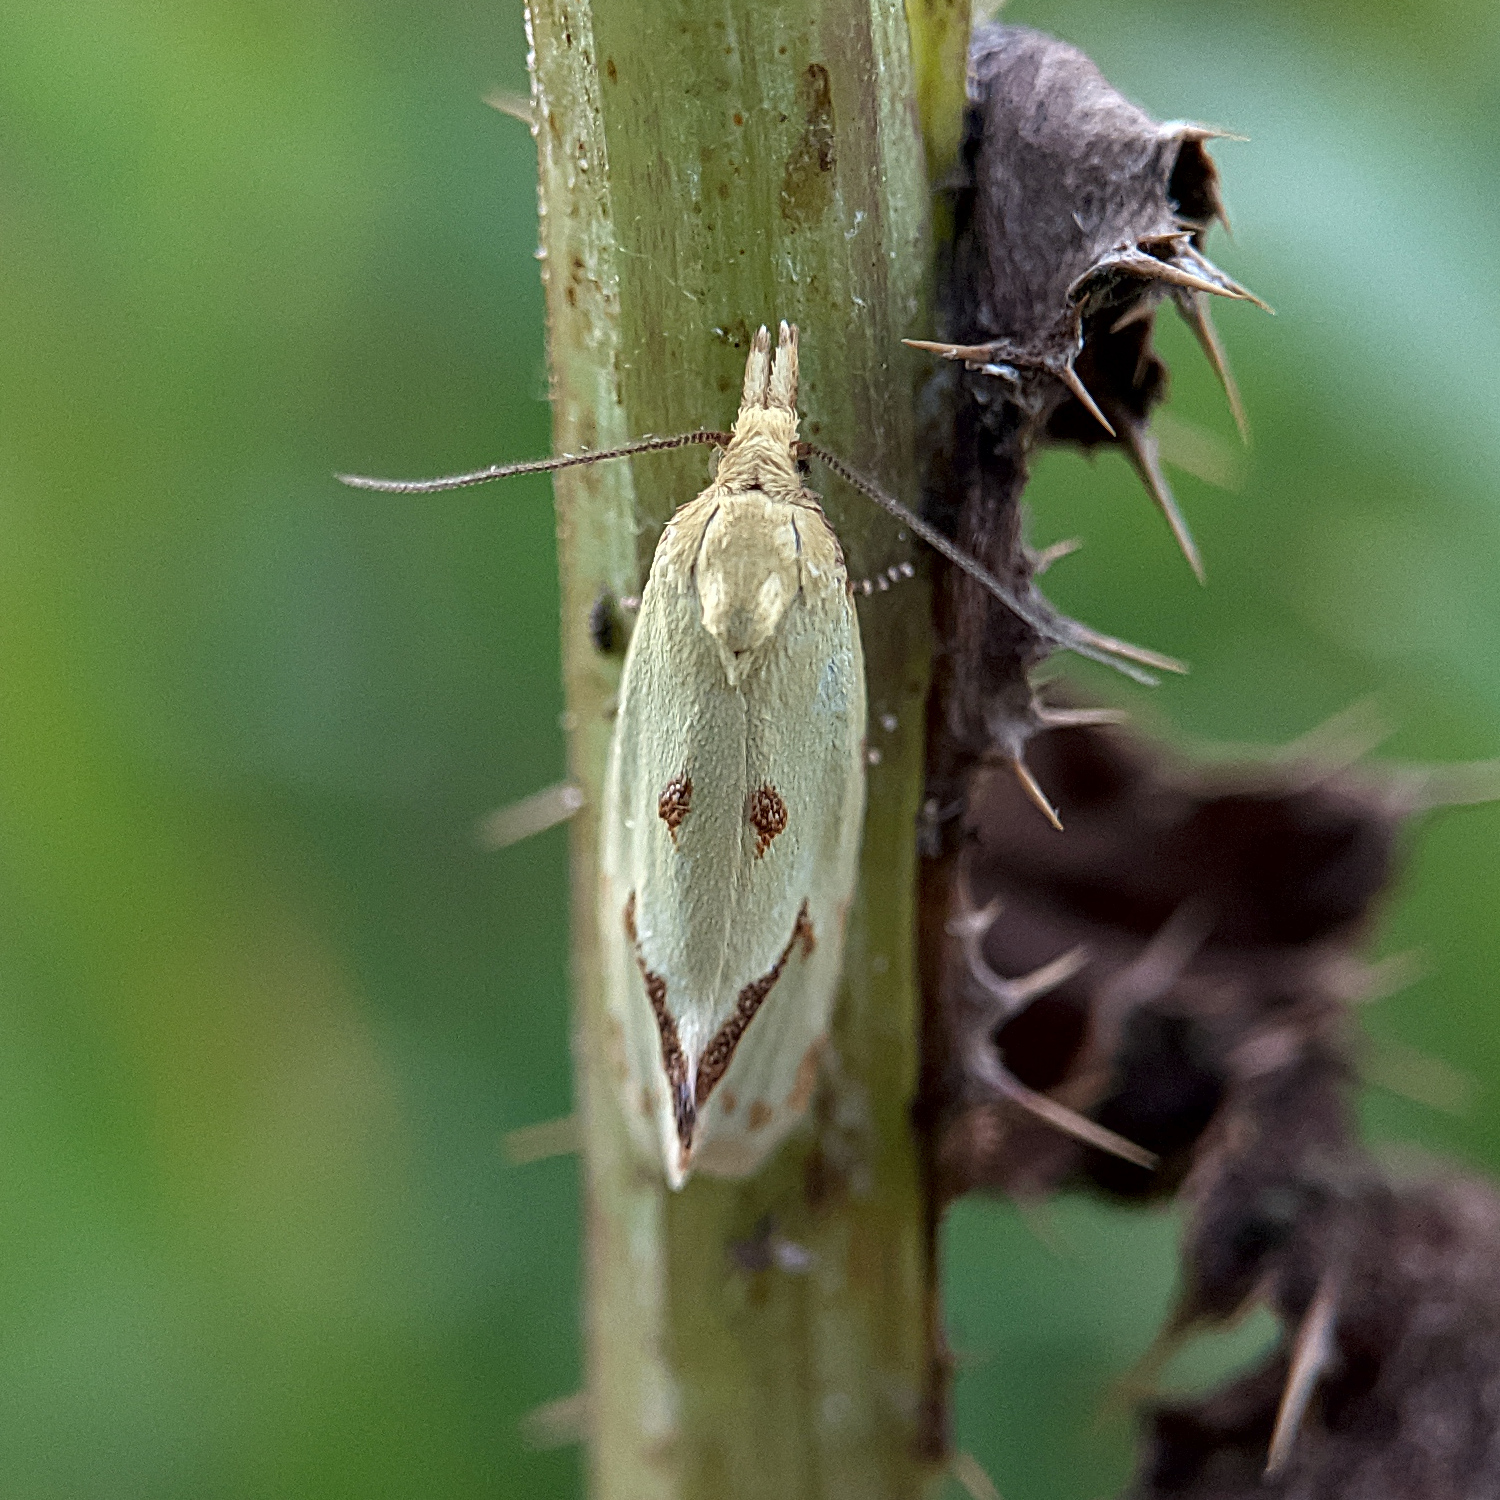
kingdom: Animalia
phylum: Arthropoda
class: Insecta
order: Lepidoptera
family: Tortricidae
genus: Agapeta
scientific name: Agapeta hamana
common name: Common yellow conch
